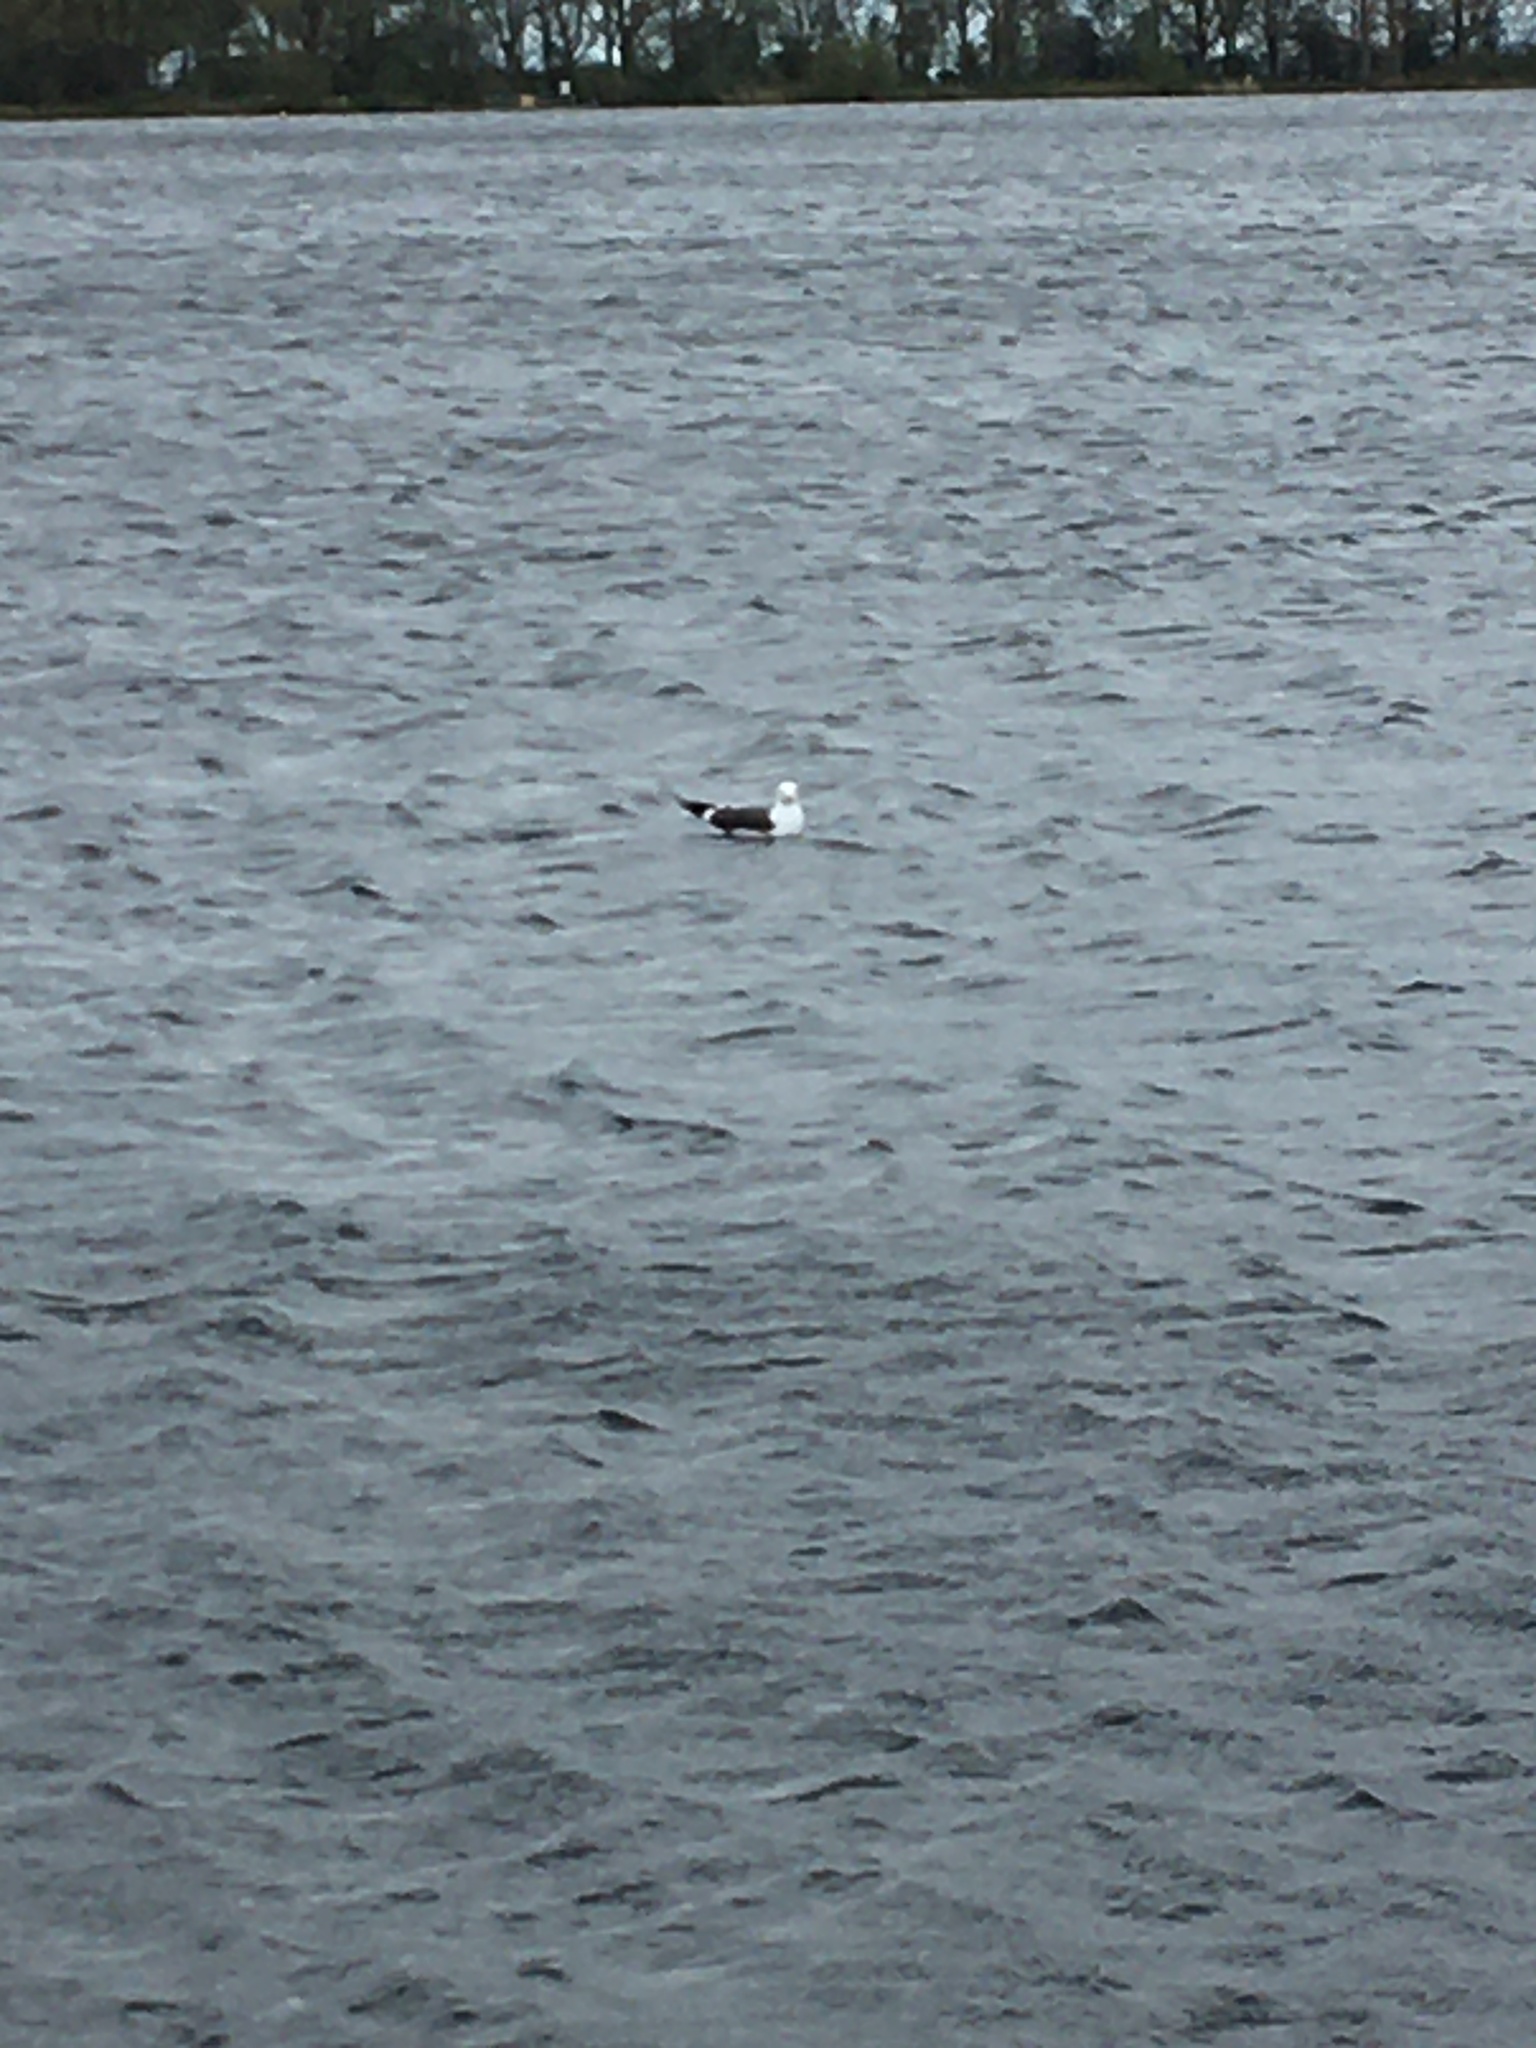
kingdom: Animalia
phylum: Chordata
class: Aves
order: Charadriiformes
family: Laridae
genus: Larus
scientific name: Larus fuscus
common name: Lesser black-backed gull
